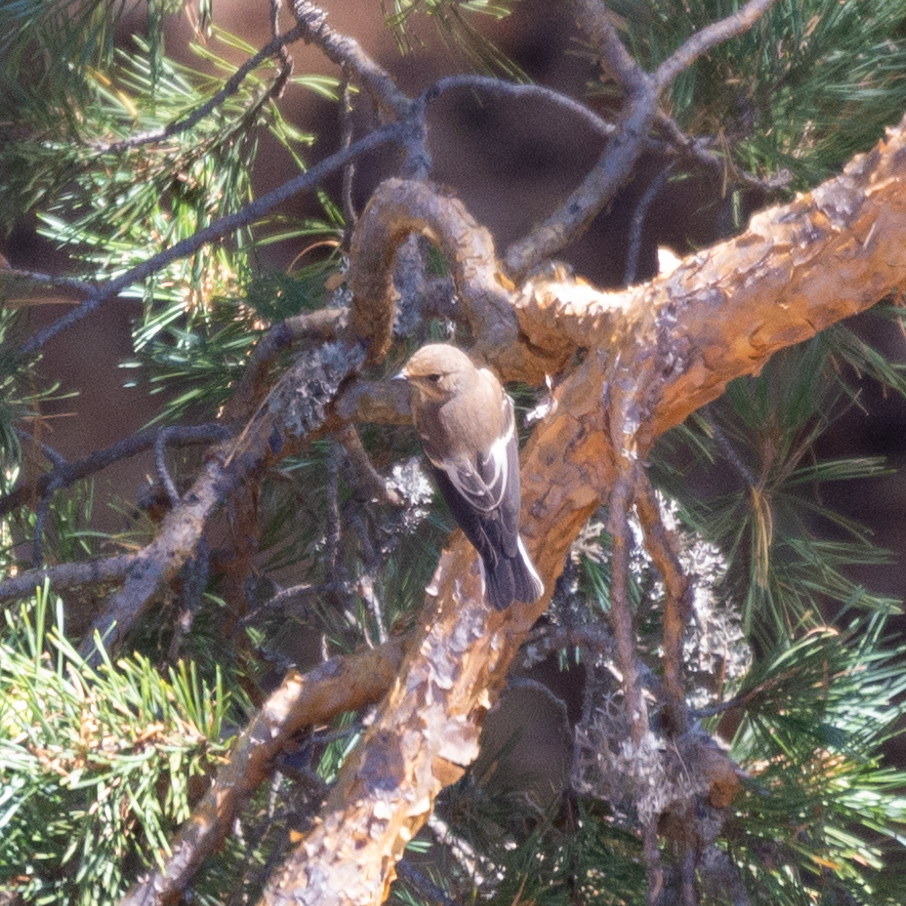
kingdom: Animalia
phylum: Chordata
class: Aves
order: Passeriformes
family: Muscicapidae
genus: Ficedula
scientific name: Ficedula hypoleuca
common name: European pied flycatcher
